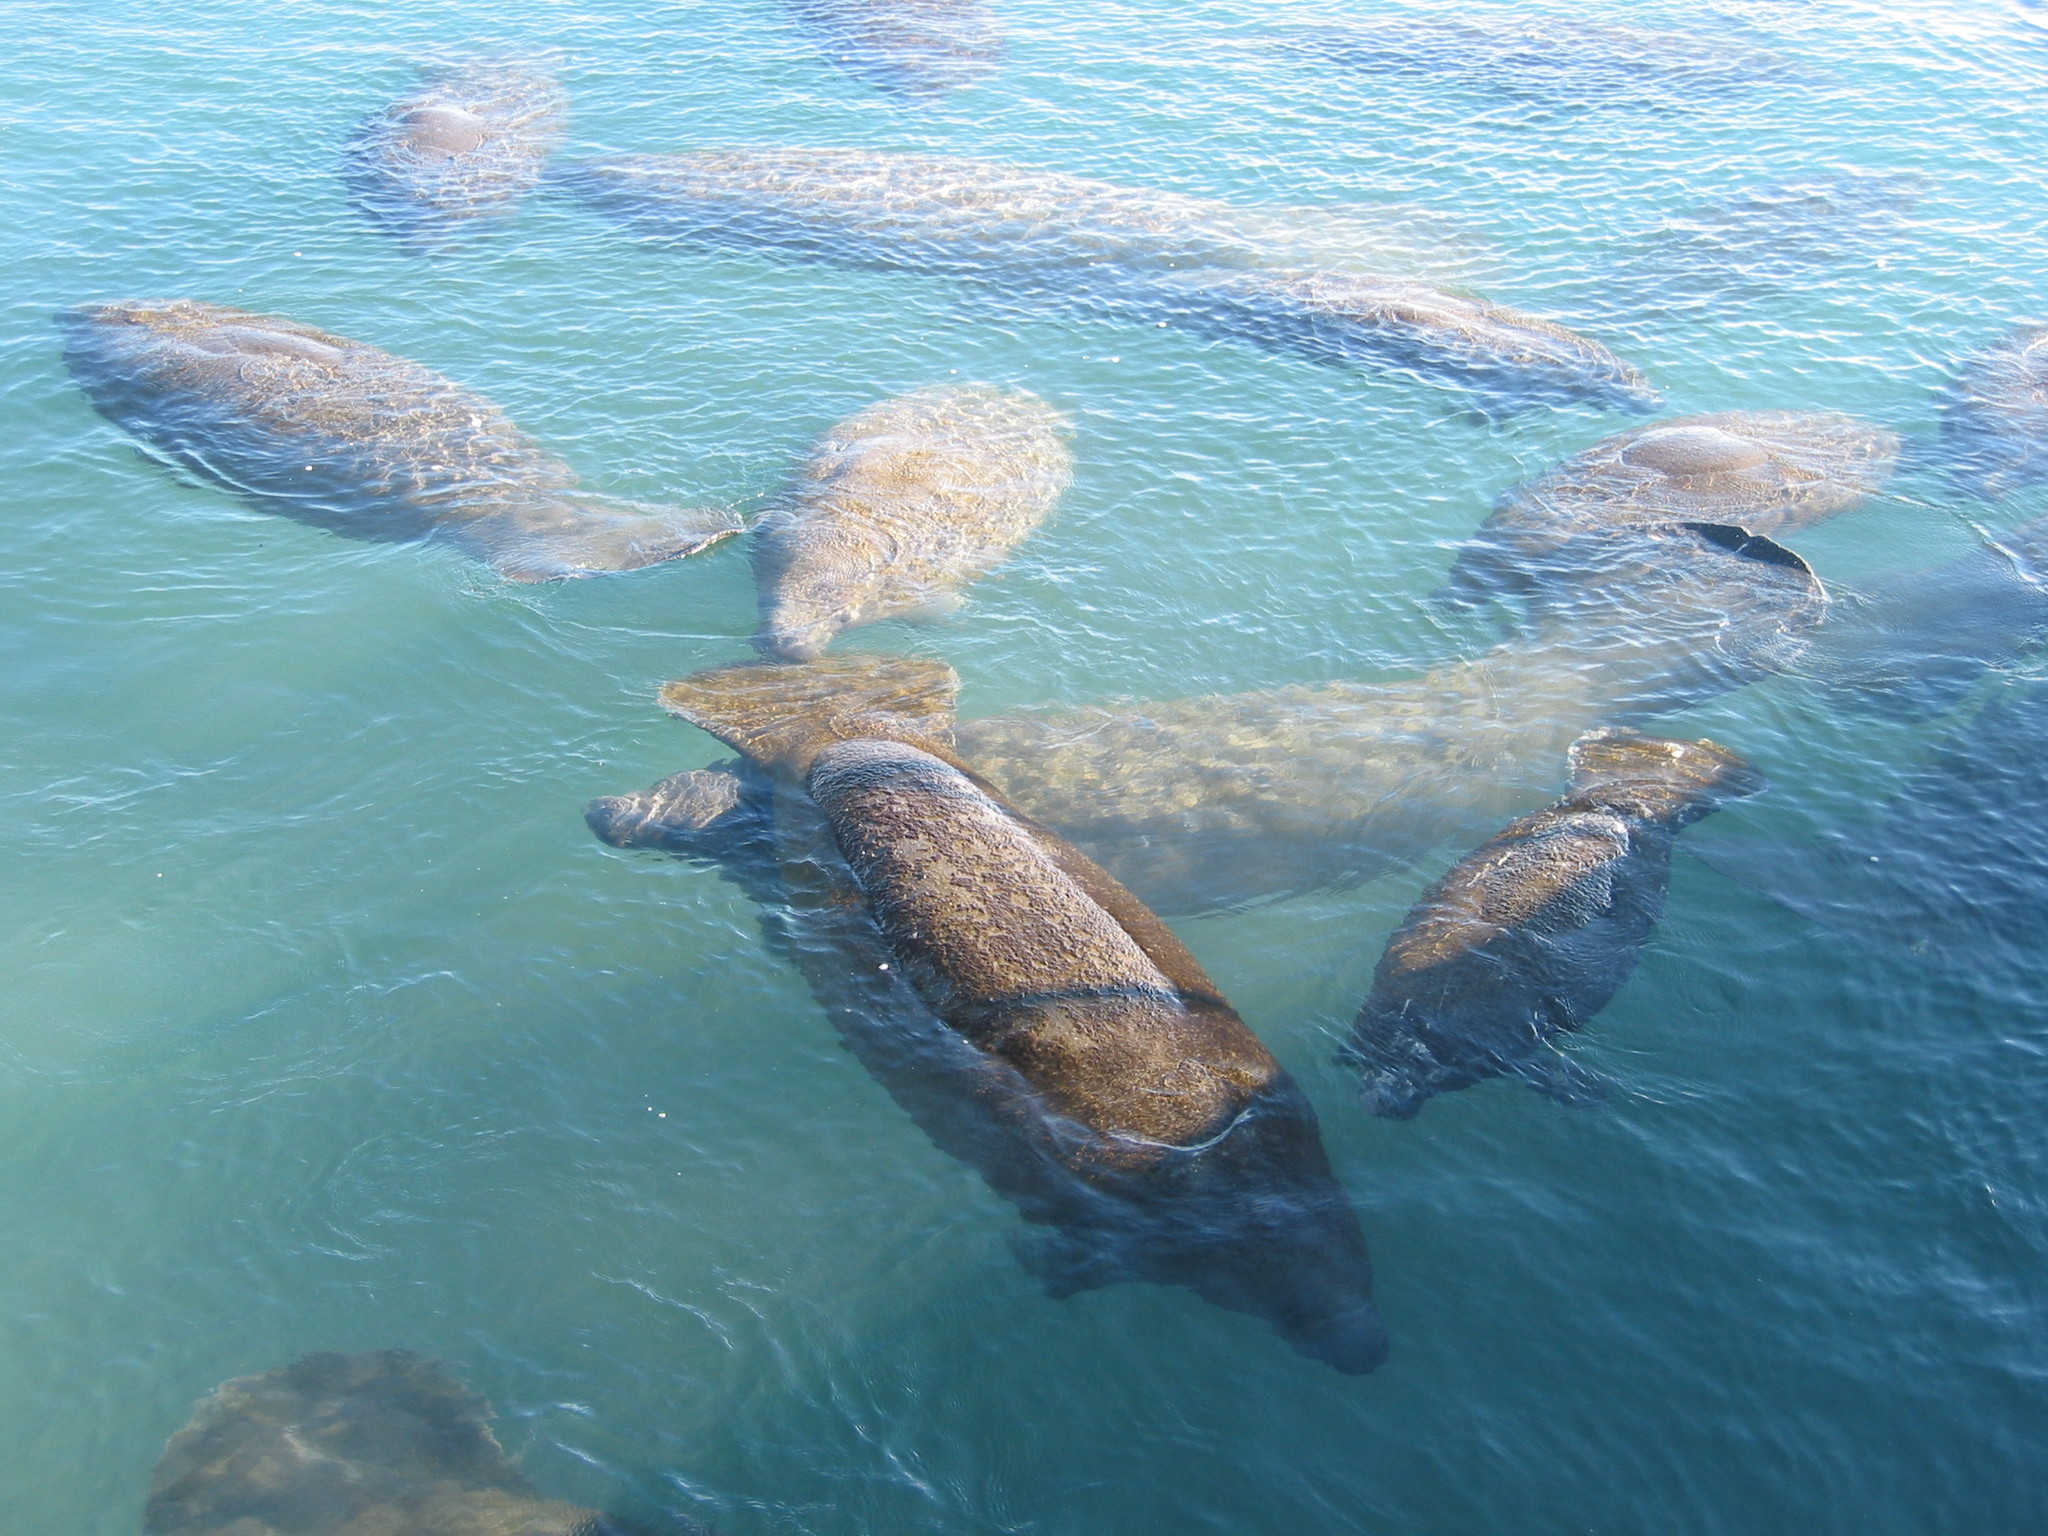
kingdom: Animalia
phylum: Chordata
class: Mammalia
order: Sirenia
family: Trichechidae
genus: Trichechus
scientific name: Trichechus manatus
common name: West indian manatee
